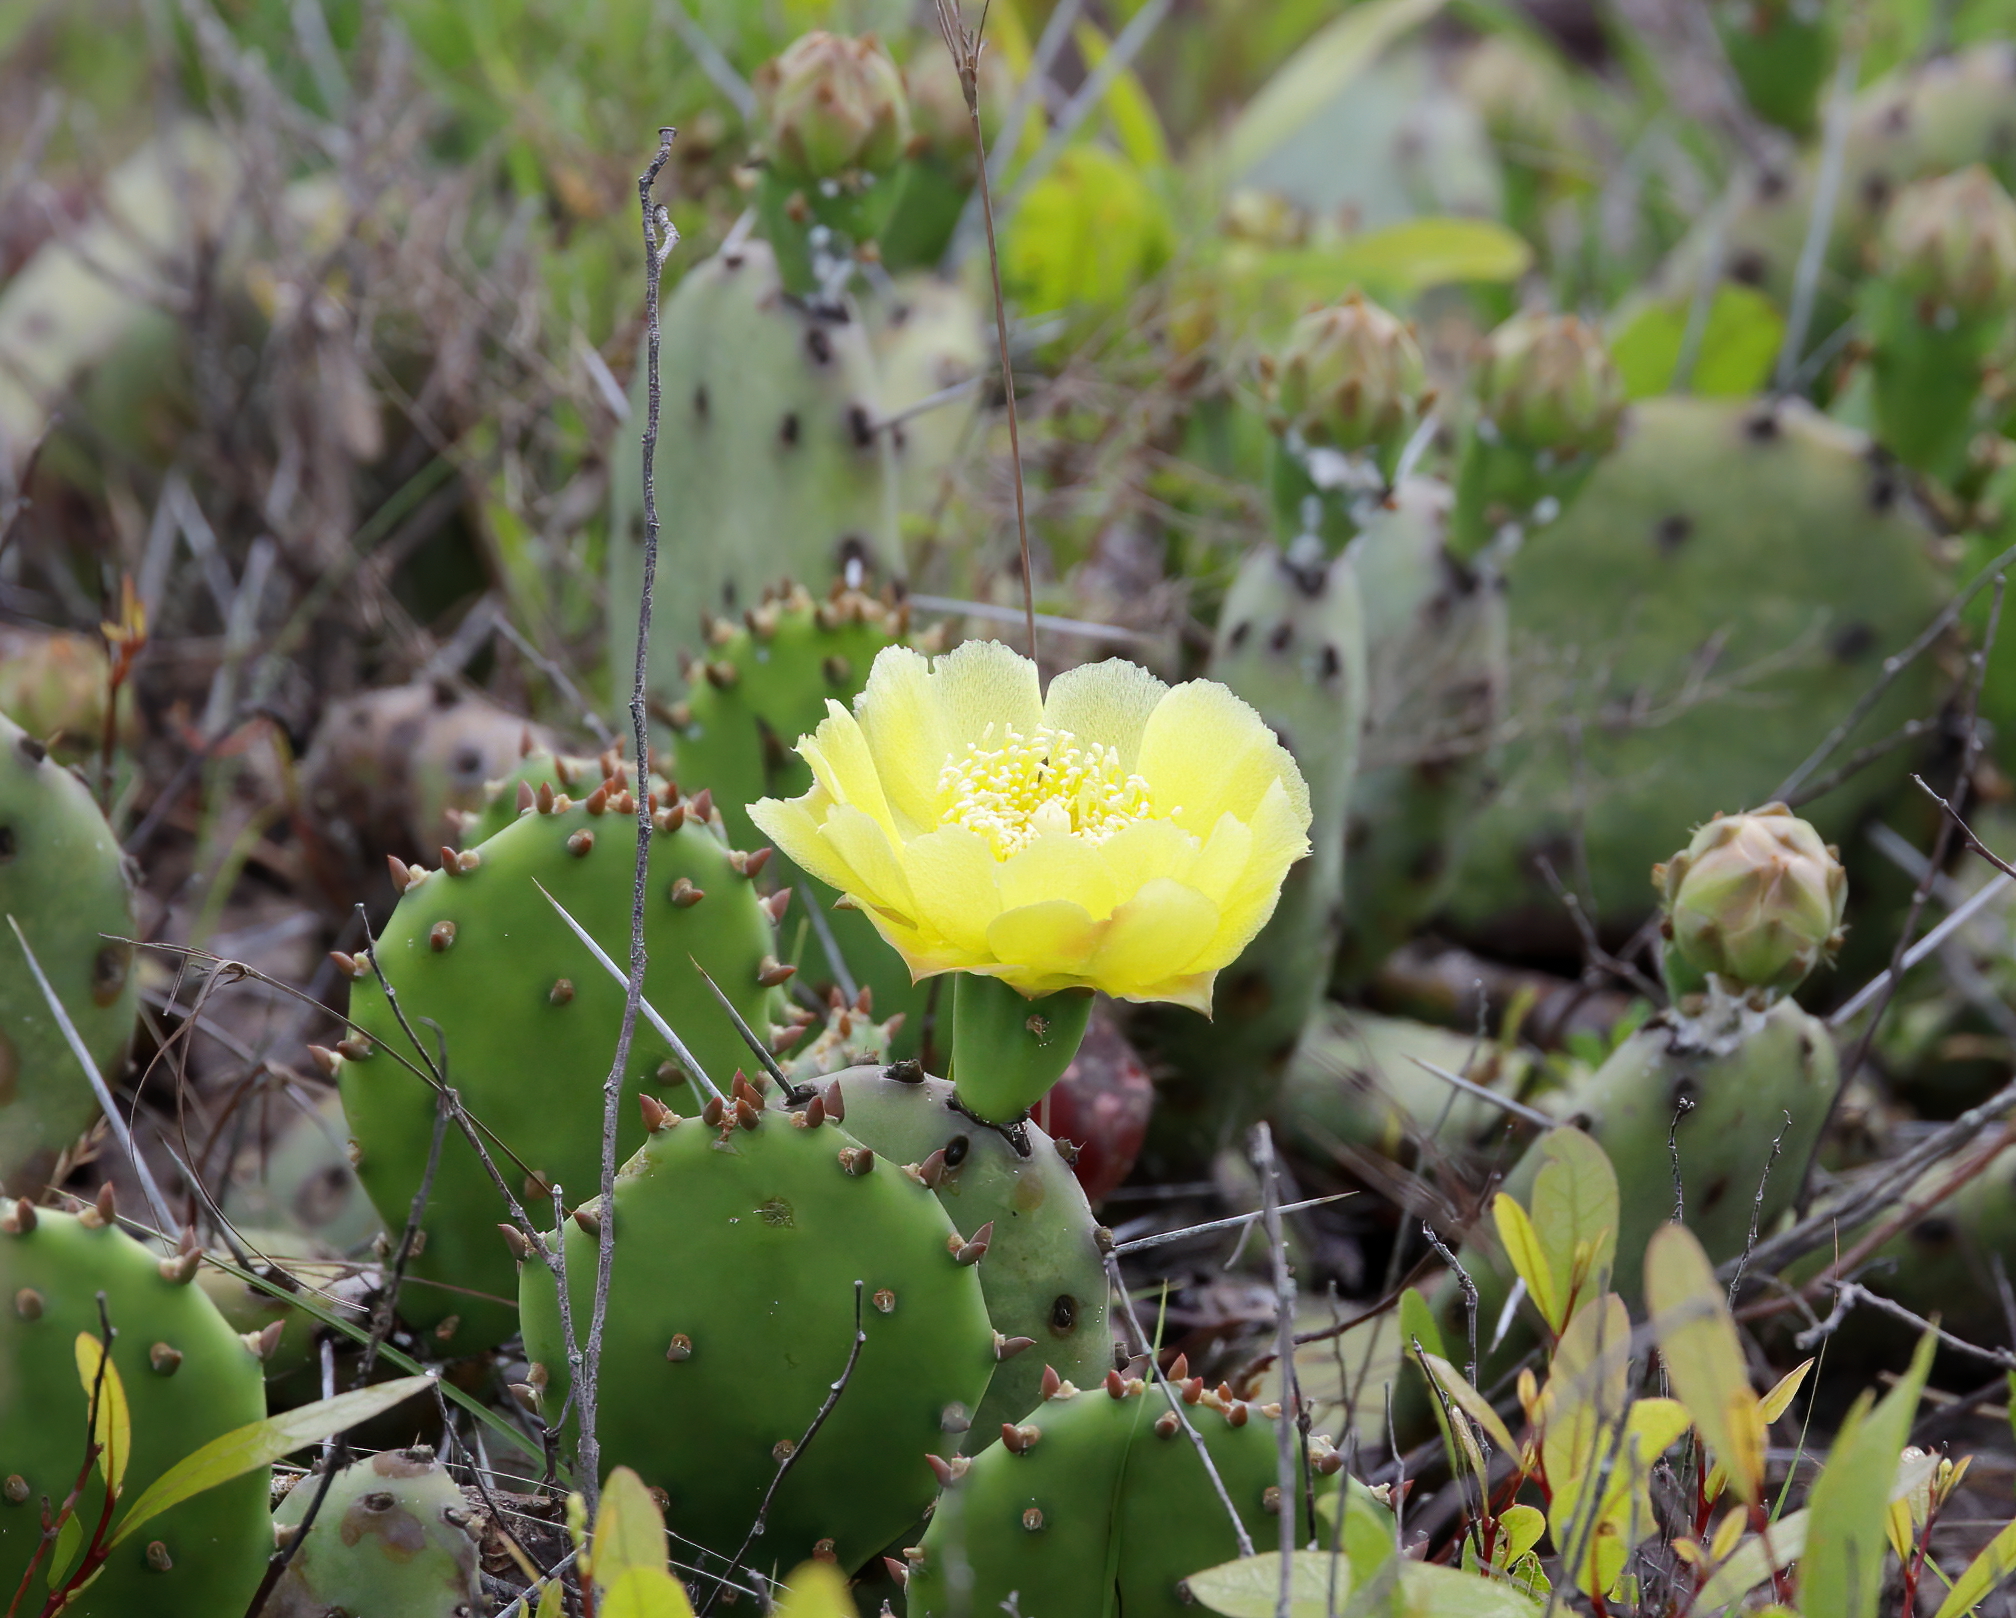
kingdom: Plantae
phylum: Tracheophyta
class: Magnoliopsida
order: Caryophyllales
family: Cactaceae
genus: Opuntia
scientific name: Opuntia mesacantha
